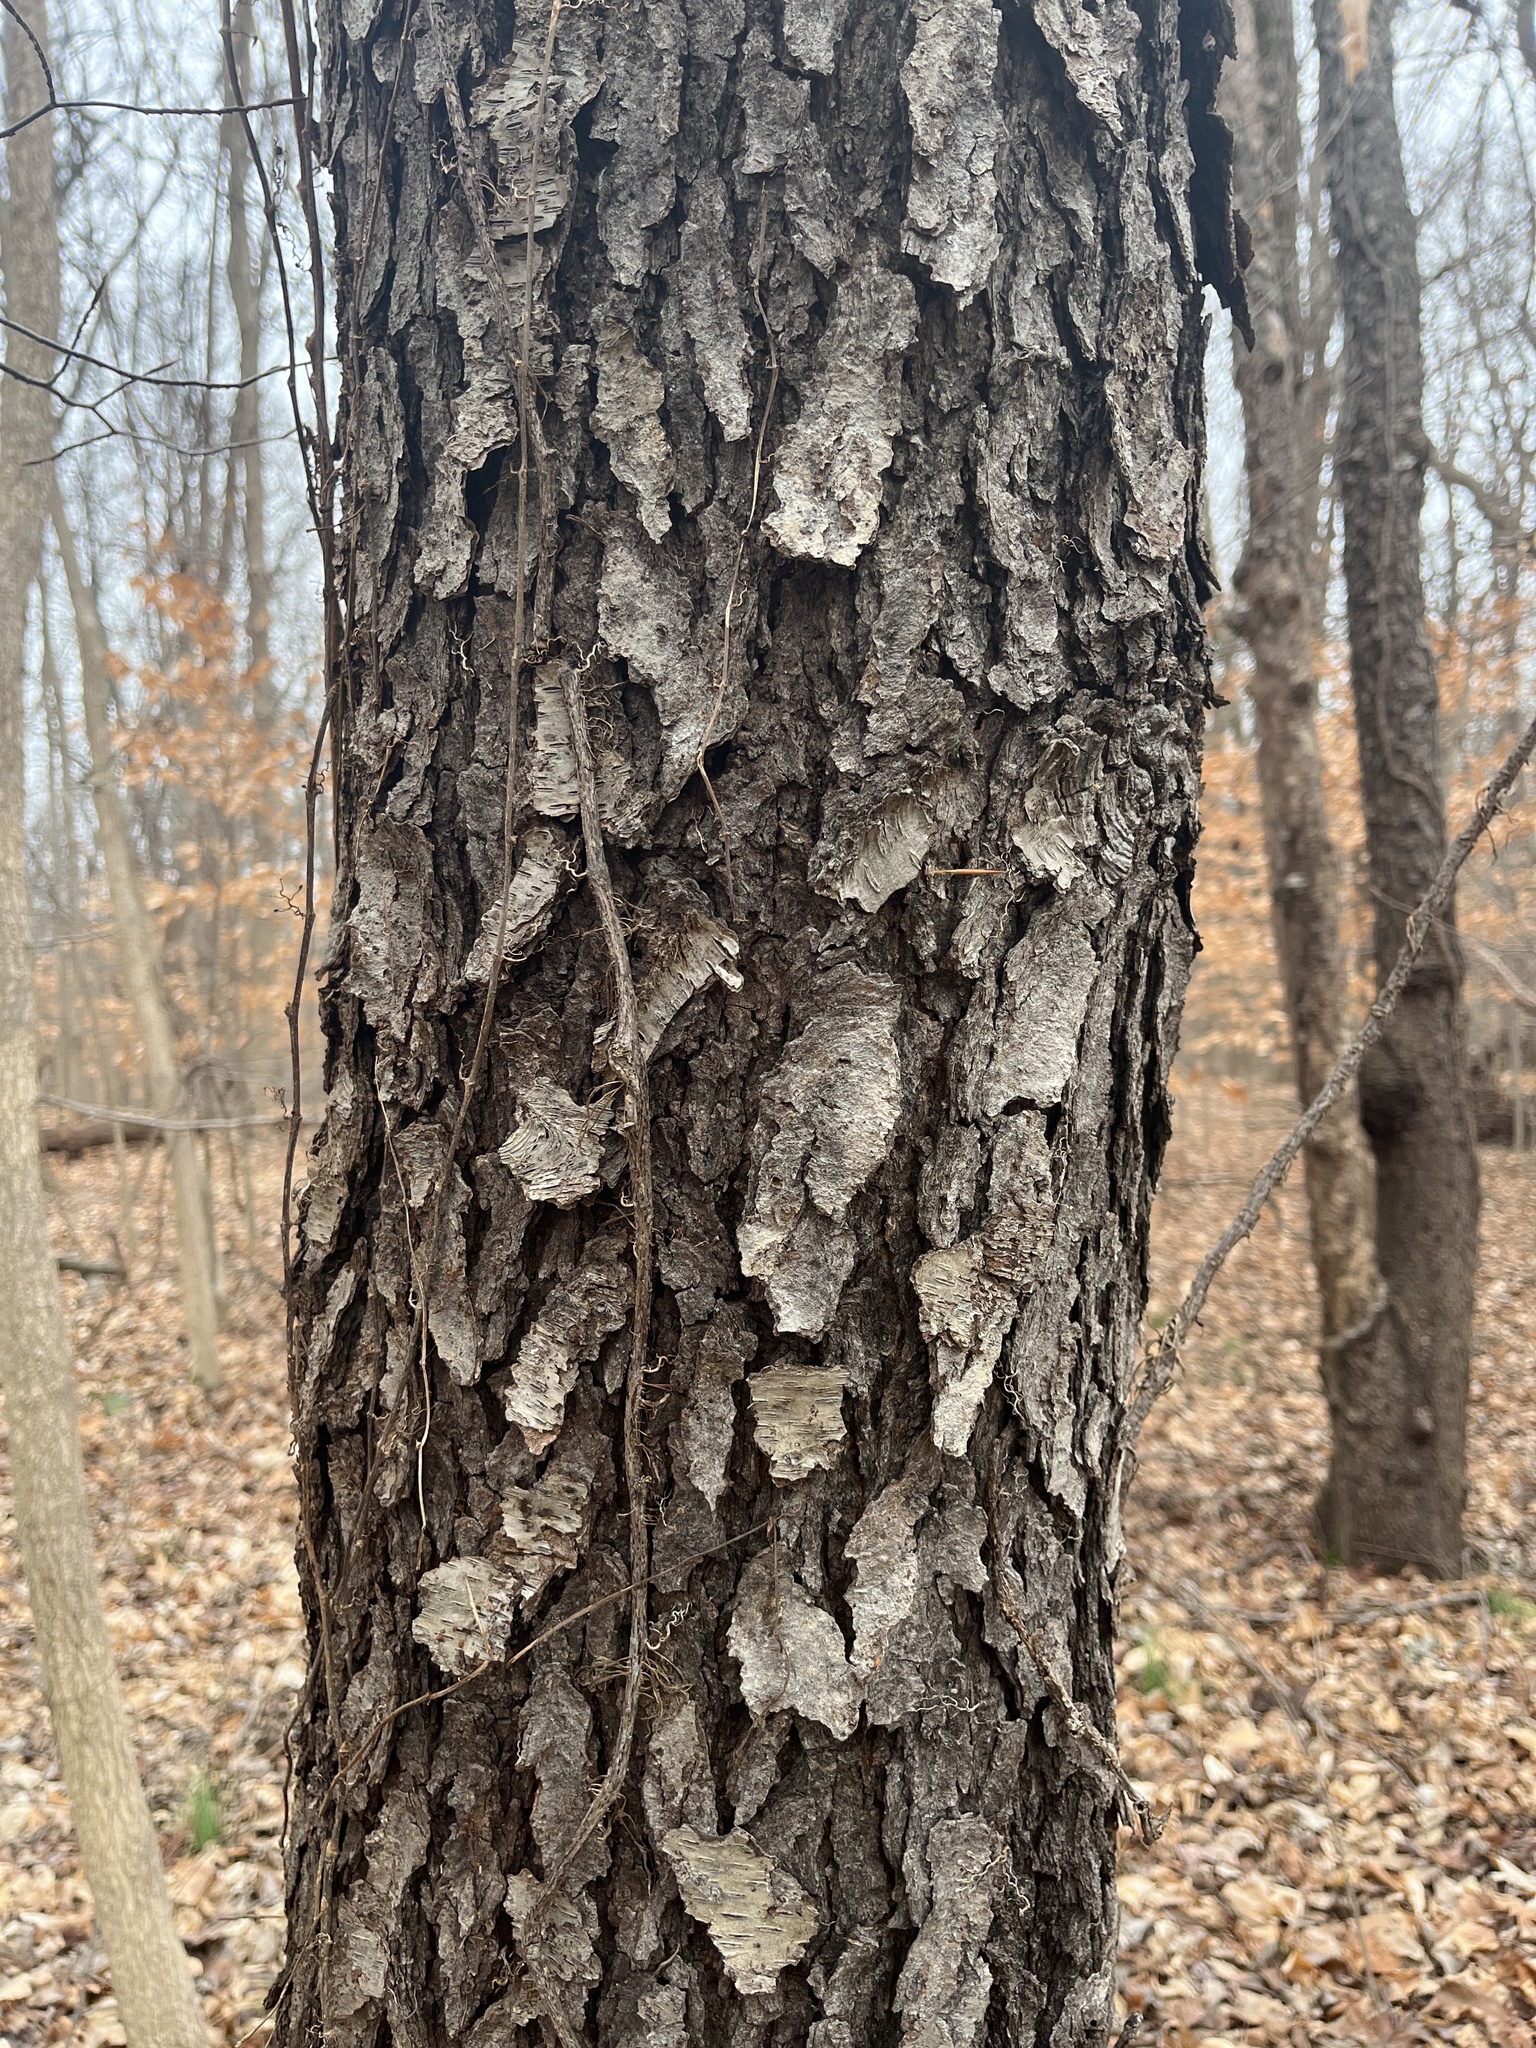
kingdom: Plantae
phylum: Tracheophyta
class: Magnoliopsida
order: Rosales
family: Rosaceae
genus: Prunus
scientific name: Prunus serotina
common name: Black cherry
